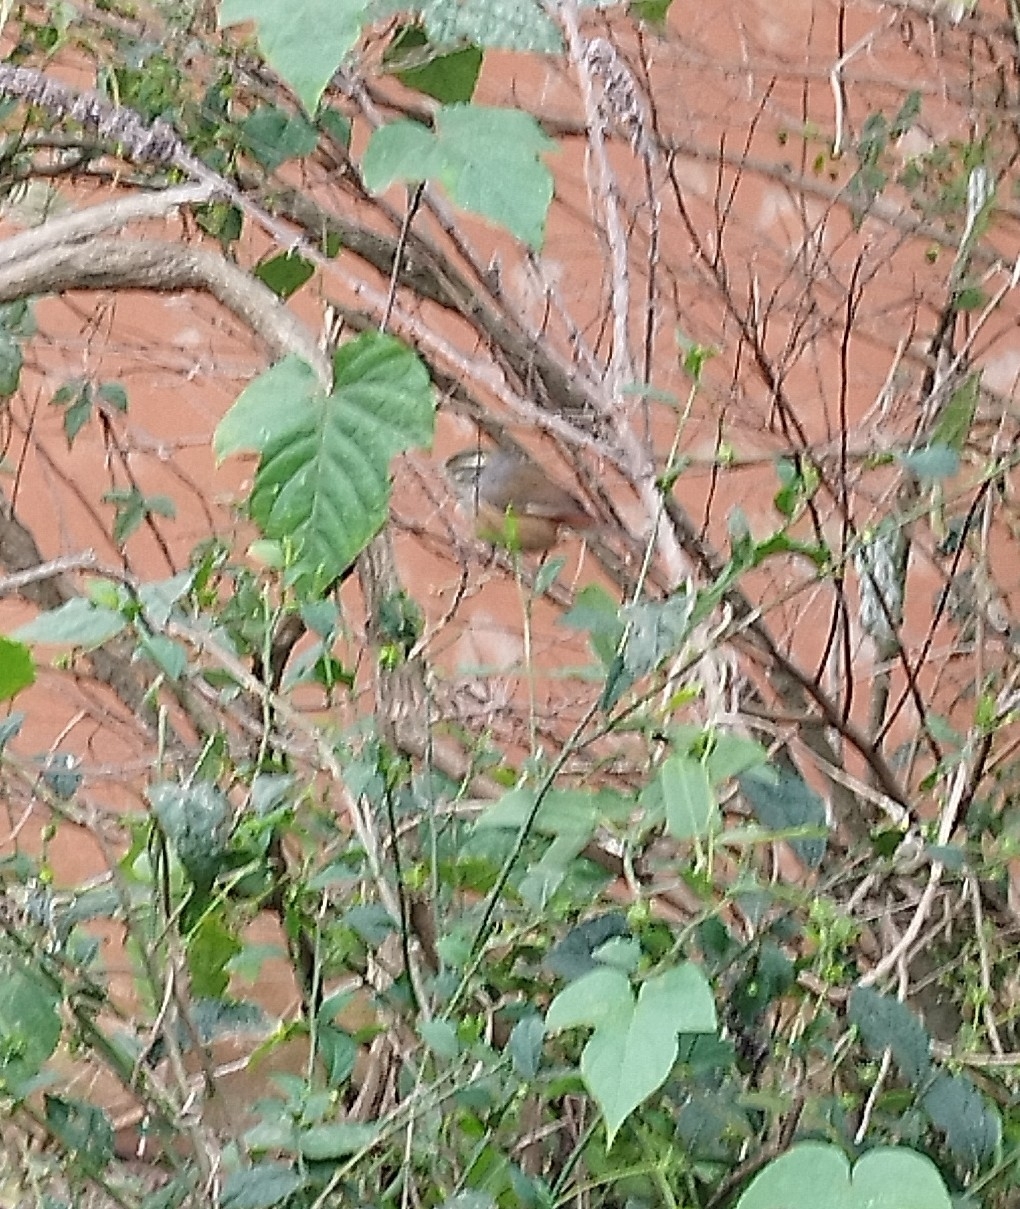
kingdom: Animalia
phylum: Chordata
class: Aves
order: Passeriformes
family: Thraupidae
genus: Microspingus
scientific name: Microspingus cabanisi
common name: Gray-throated warbling-finch
